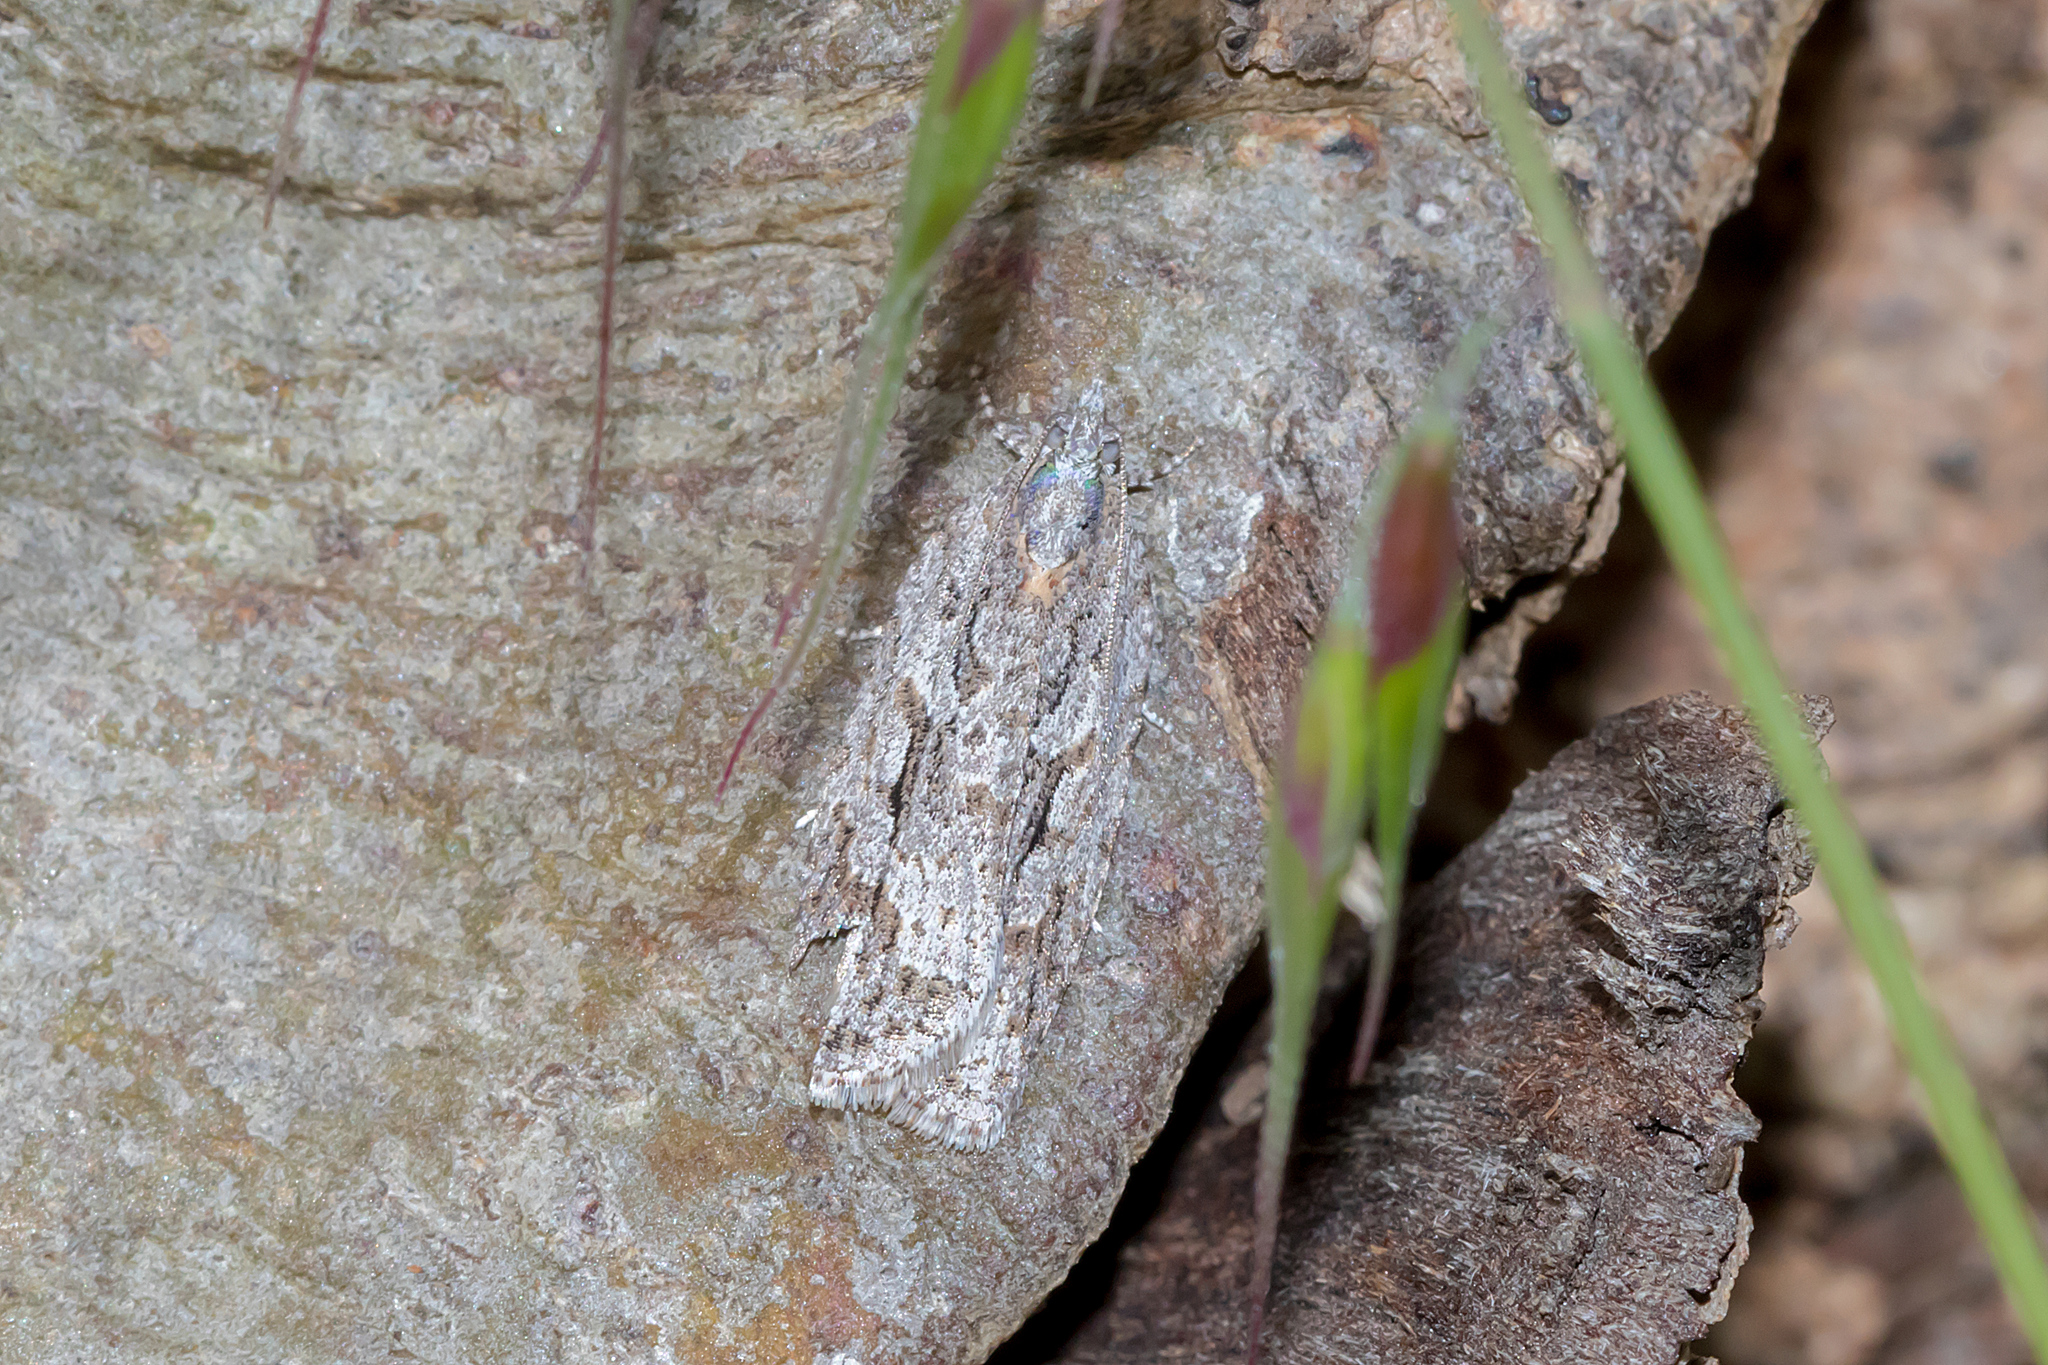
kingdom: Animalia
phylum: Arthropoda
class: Insecta
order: Lepidoptera
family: Tortricidae
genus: Acropolitis
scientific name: Acropolitis rudisana
